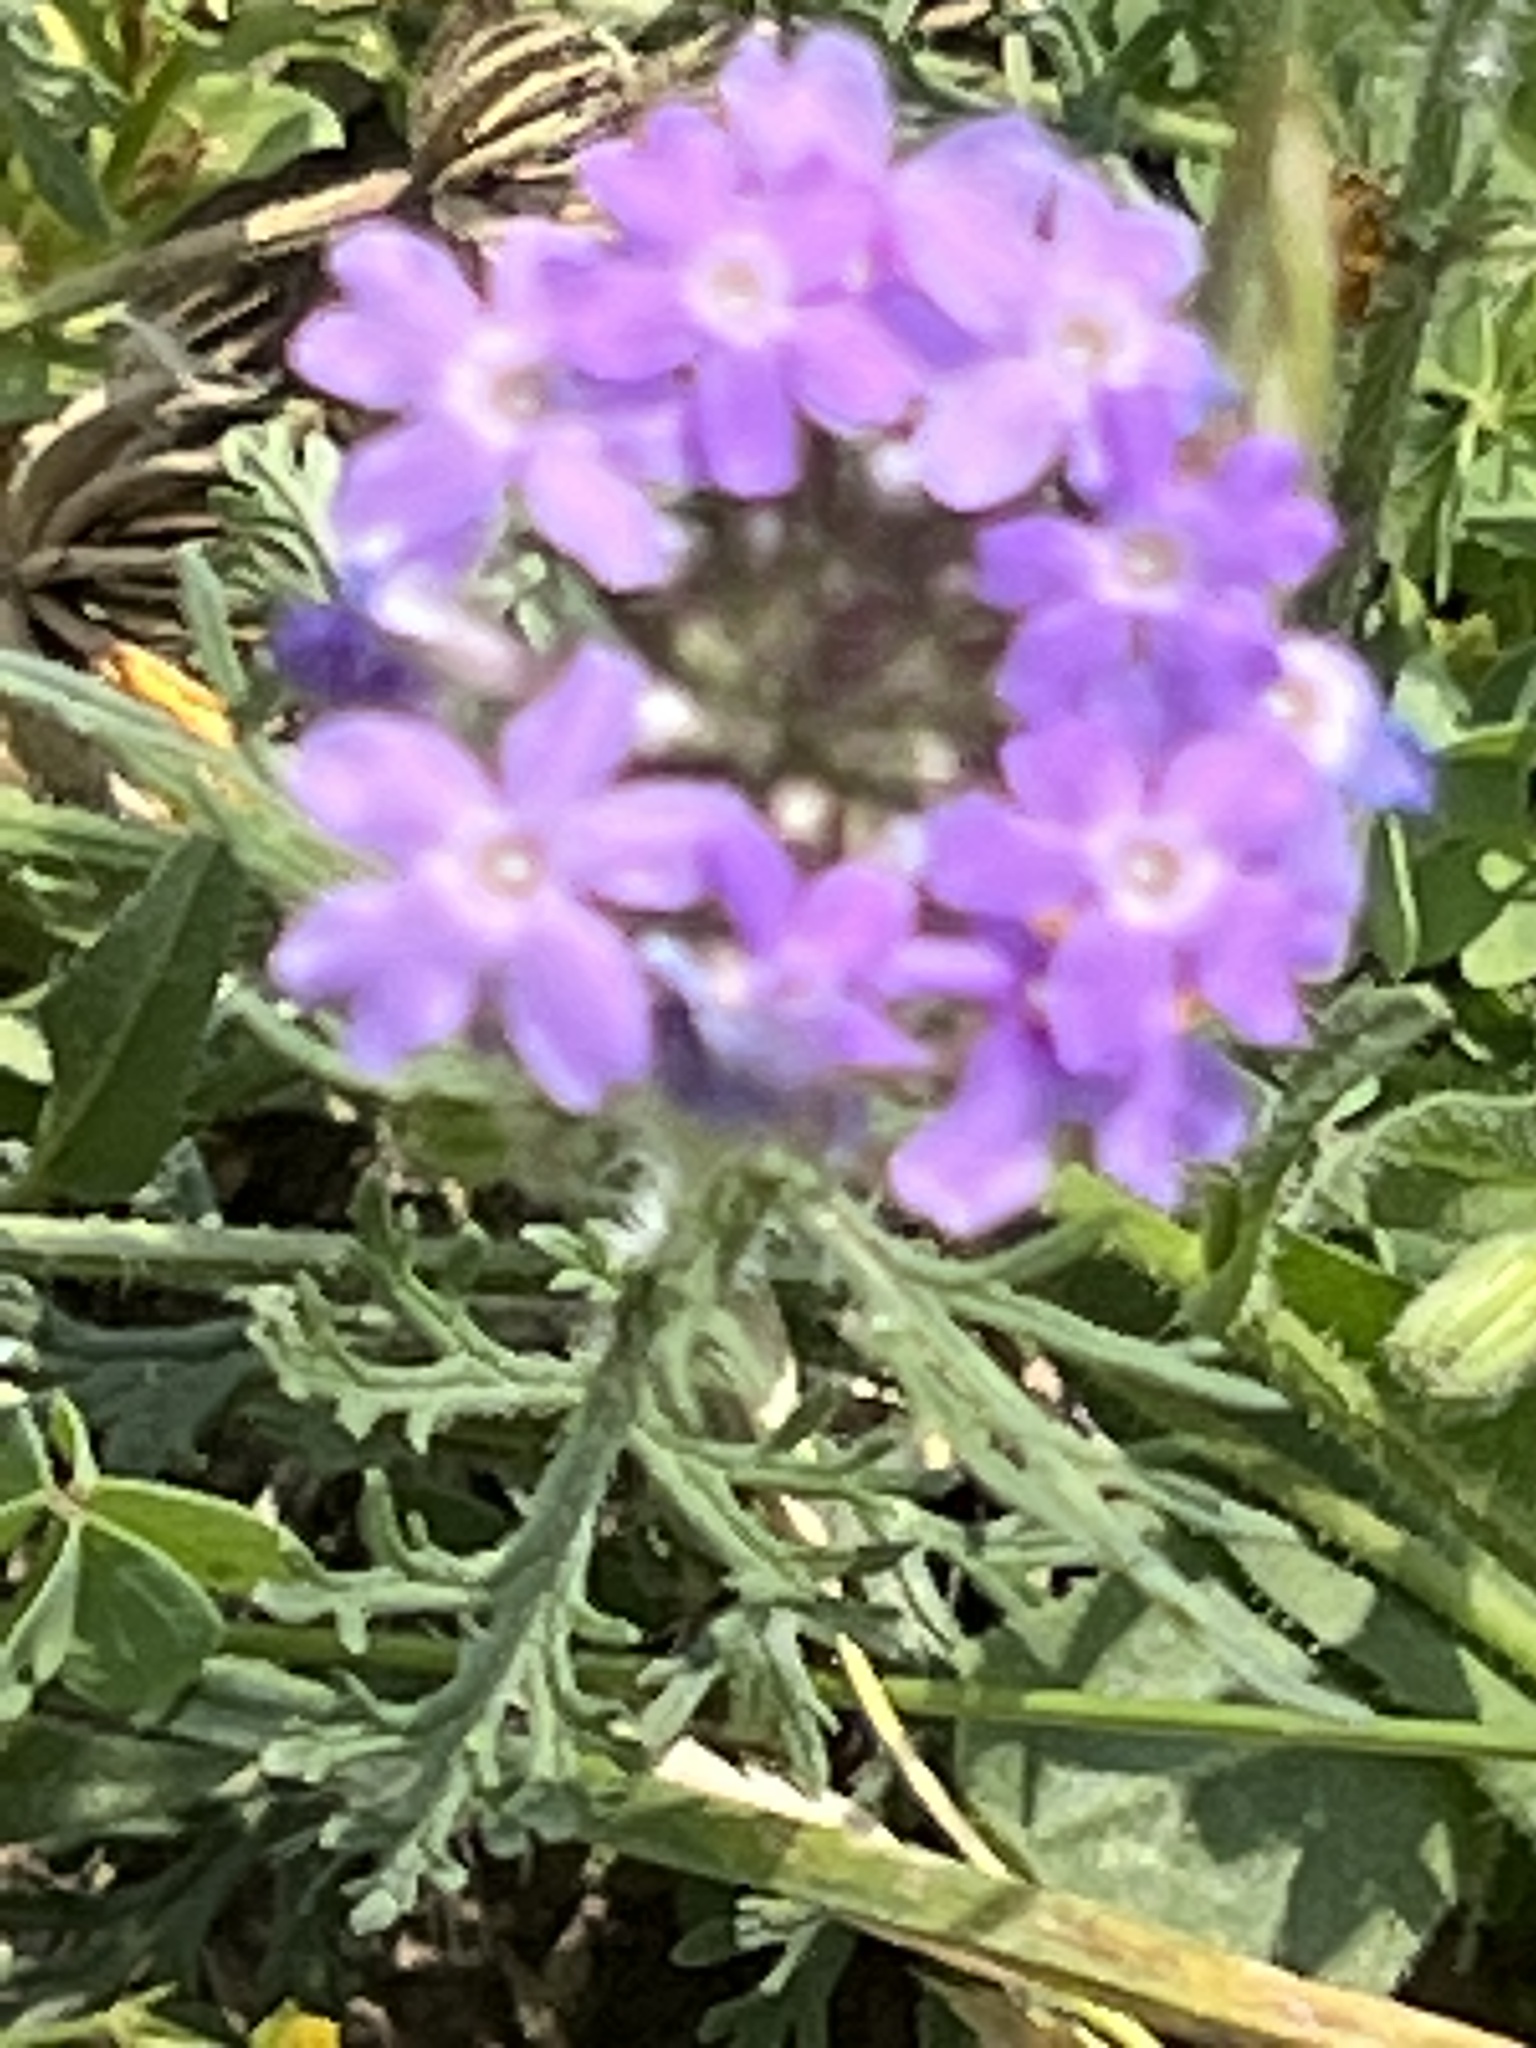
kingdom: Plantae
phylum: Tracheophyta
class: Magnoliopsida
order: Lamiales
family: Verbenaceae
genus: Verbena
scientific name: Verbena bipinnatifida
